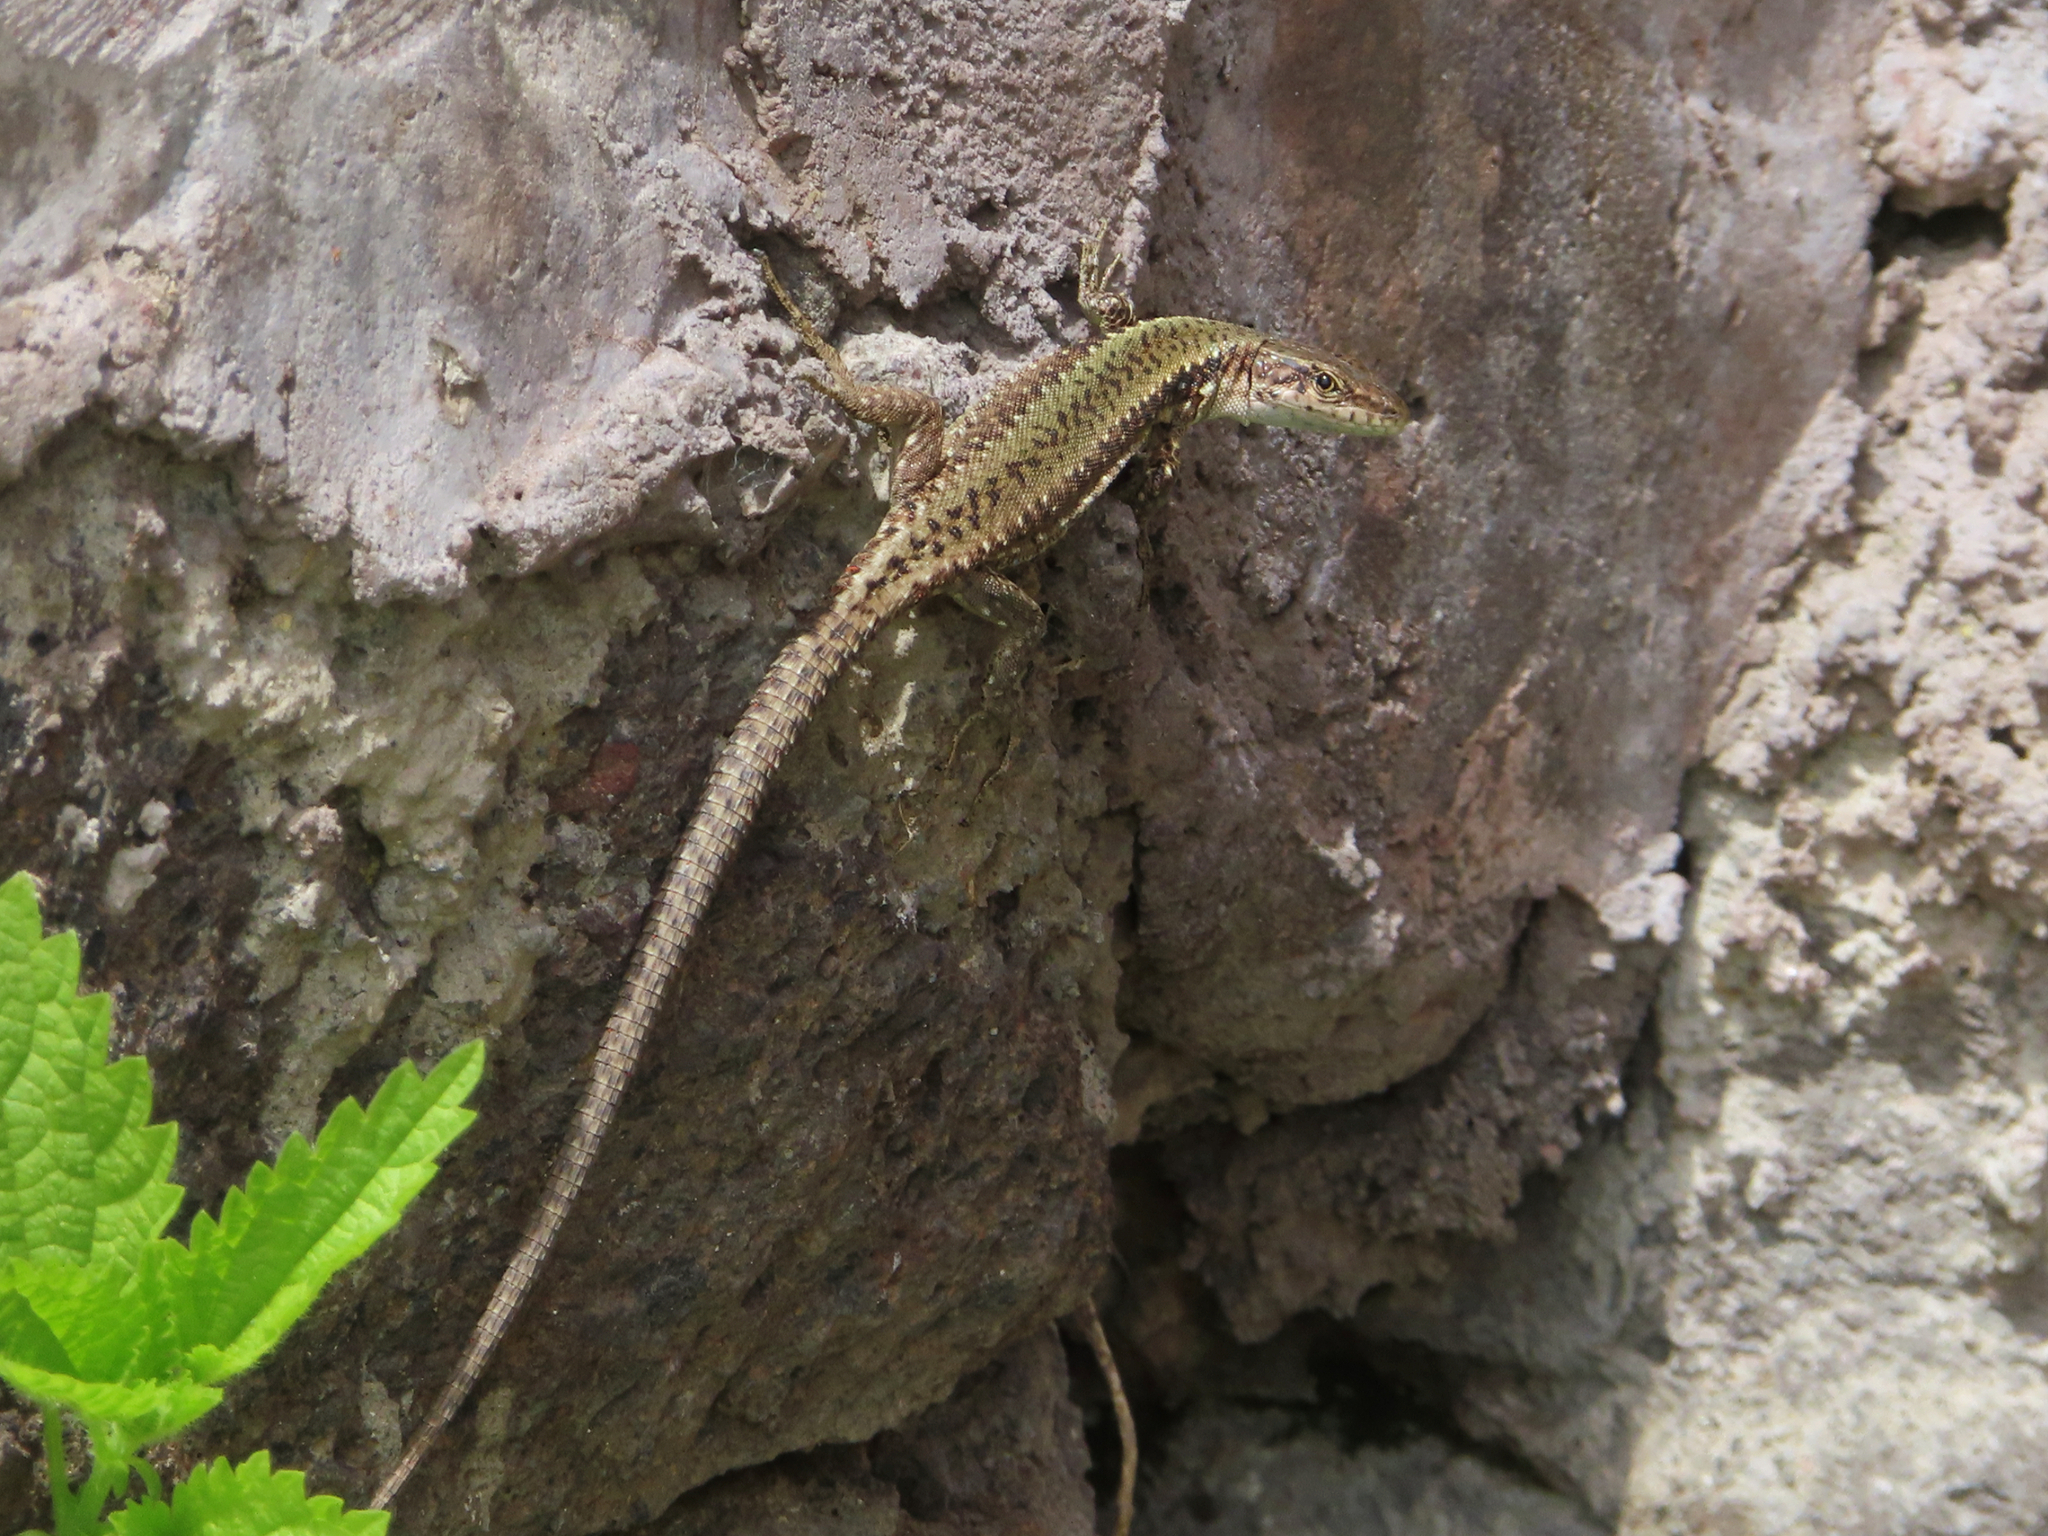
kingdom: Animalia
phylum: Chordata
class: Squamata
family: Lacertidae
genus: Darevskia
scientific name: Darevskia
